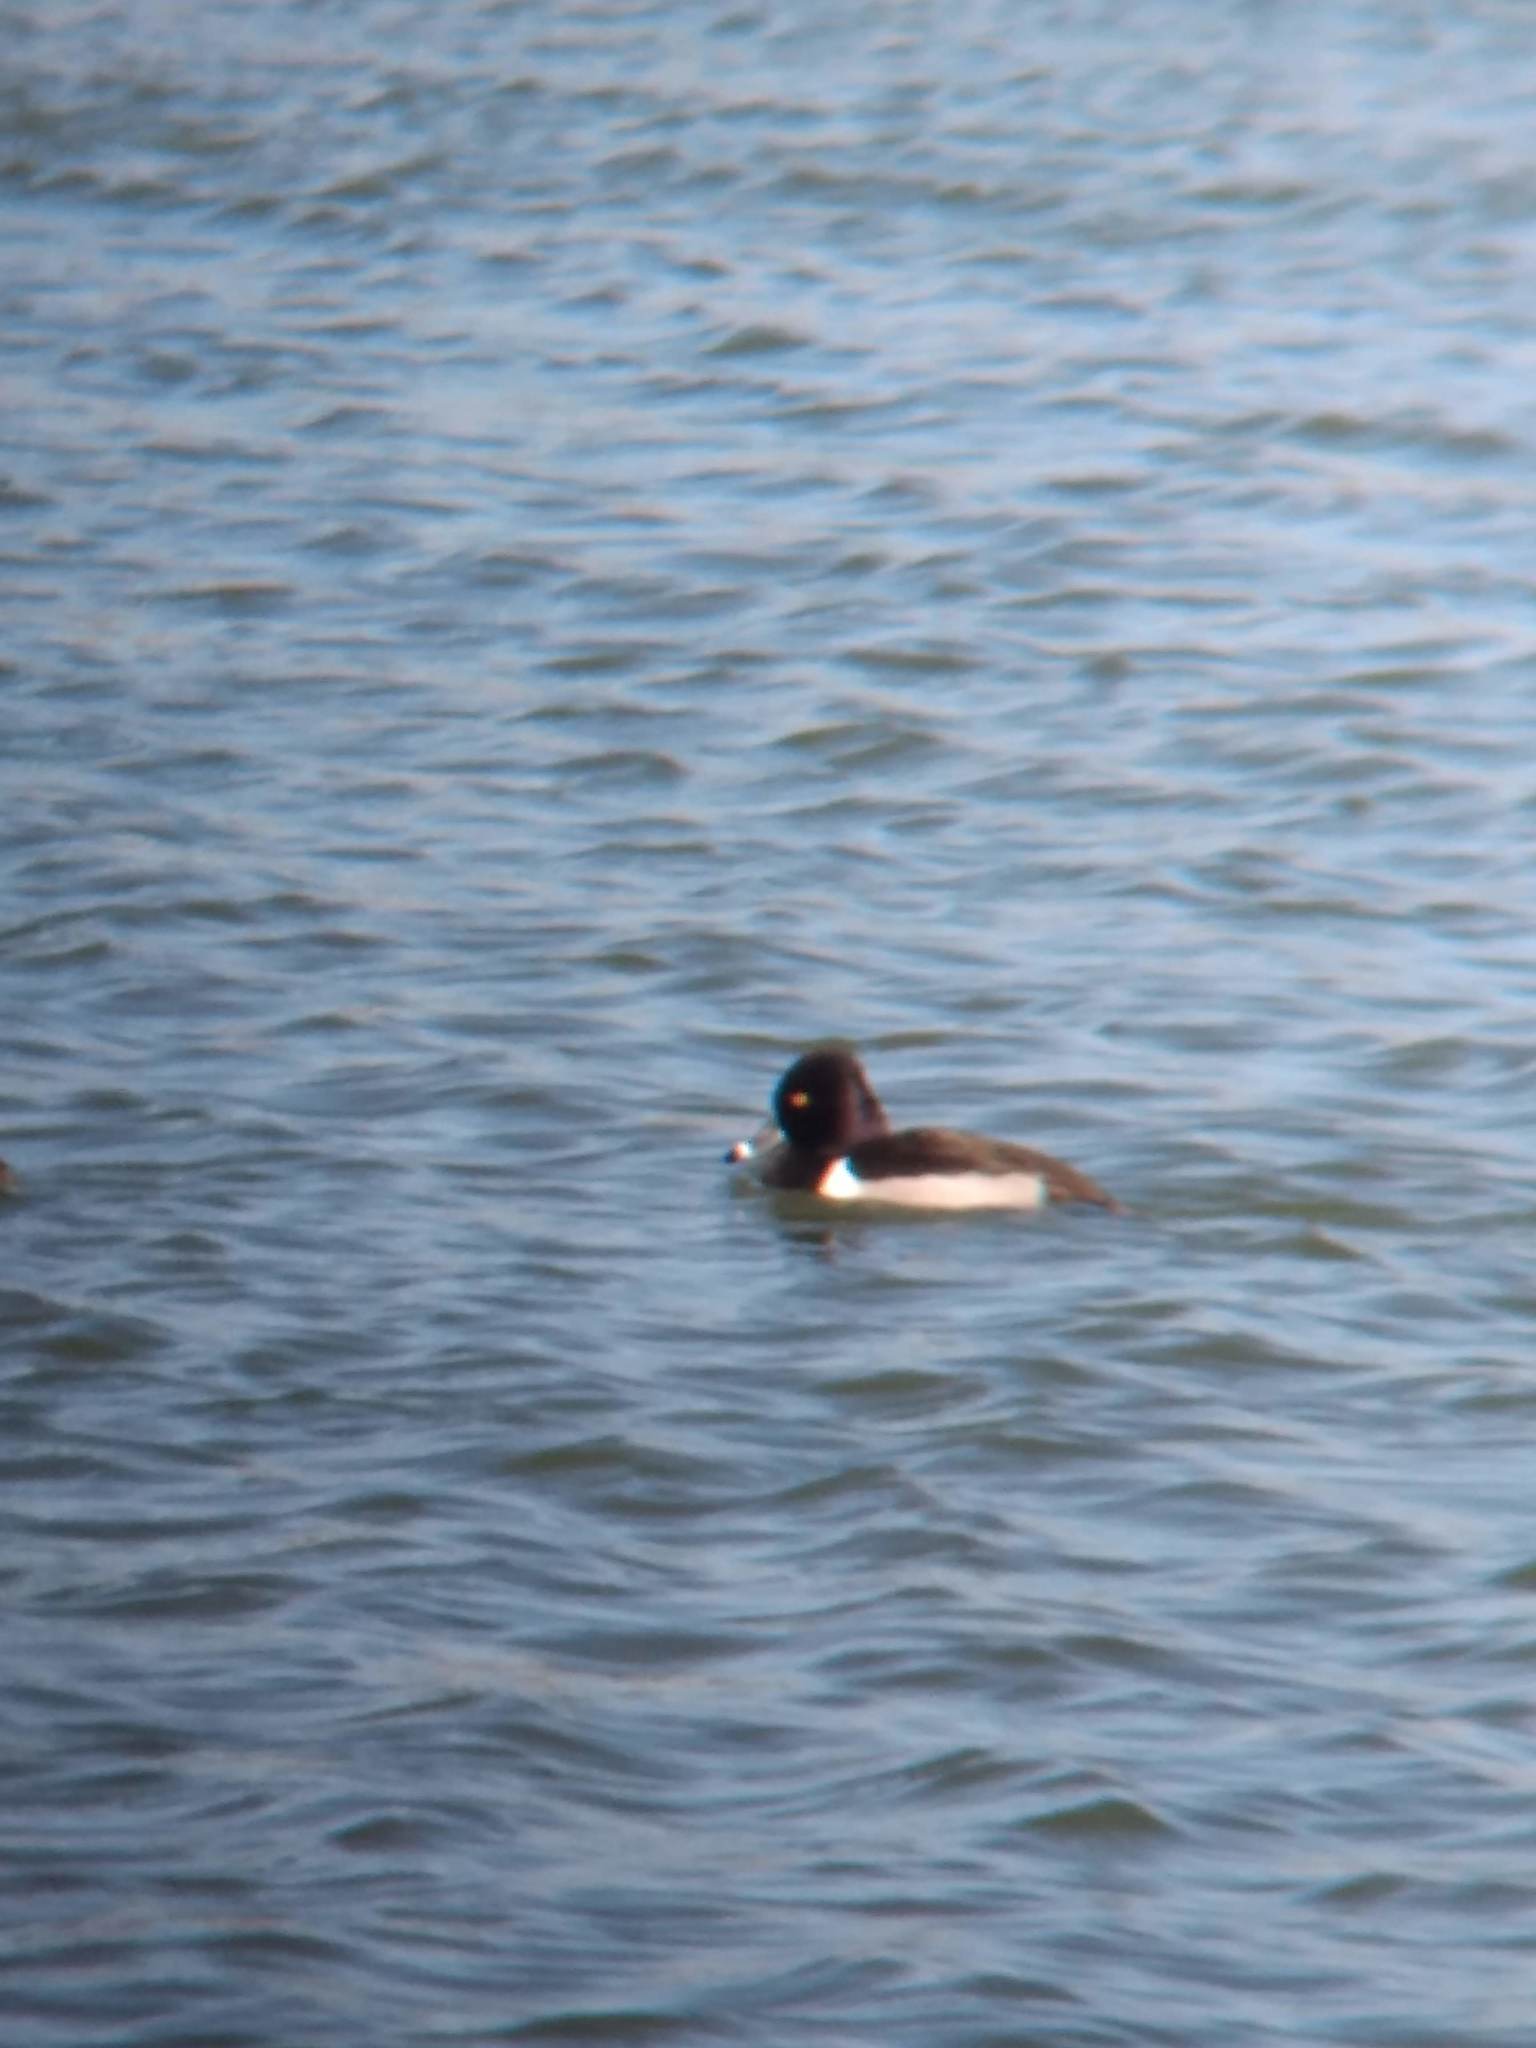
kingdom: Animalia
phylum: Chordata
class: Aves
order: Anseriformes
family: Anatidae
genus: Aythya
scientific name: Aythya collaris
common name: Ring-necked duck
